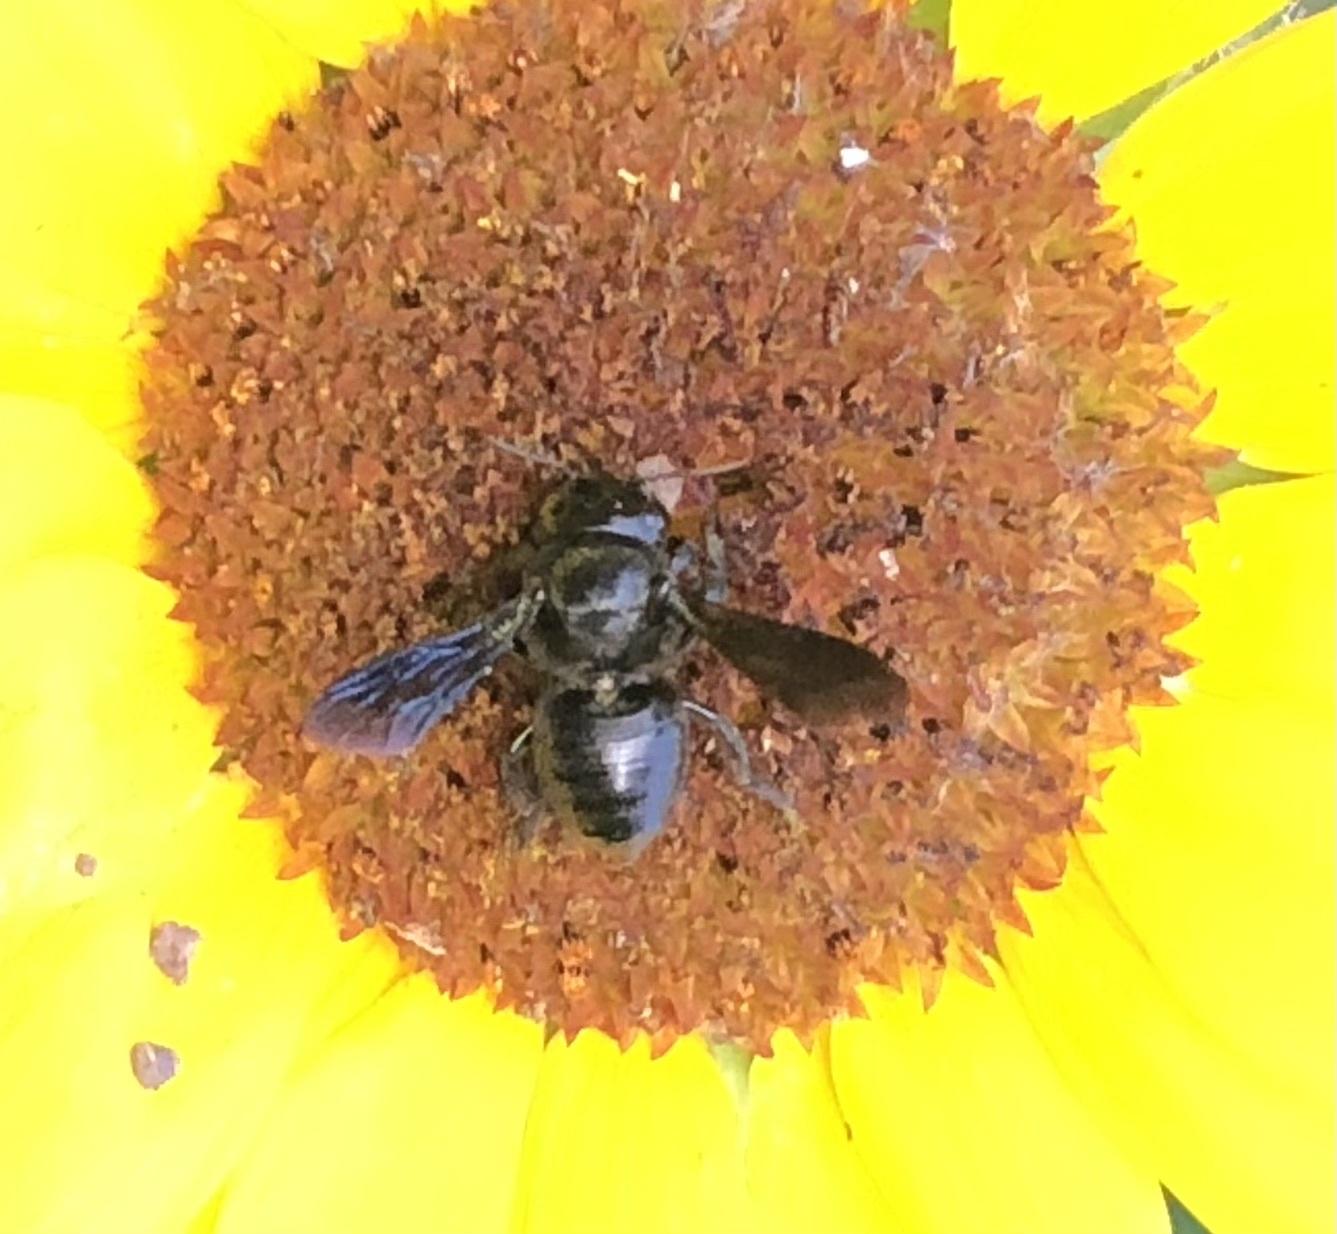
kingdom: Animalia
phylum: Arthropoda
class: Insecta
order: Hymenoptera
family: Megachilidae
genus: Megachile
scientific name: Megachile xylocopoides
